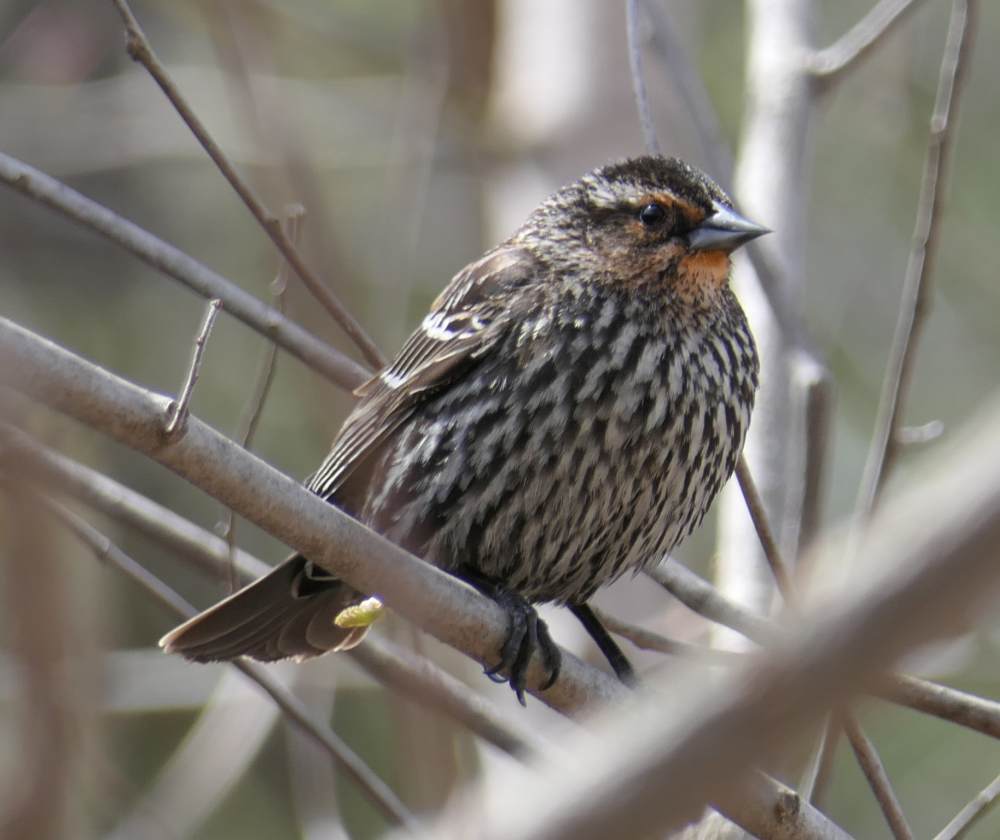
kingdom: Animalia
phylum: Chordata
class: Aves
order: Passeriformes
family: Icteridae
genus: Agelaius
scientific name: Agelaius phoeniceus
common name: Red-winged blackbird
